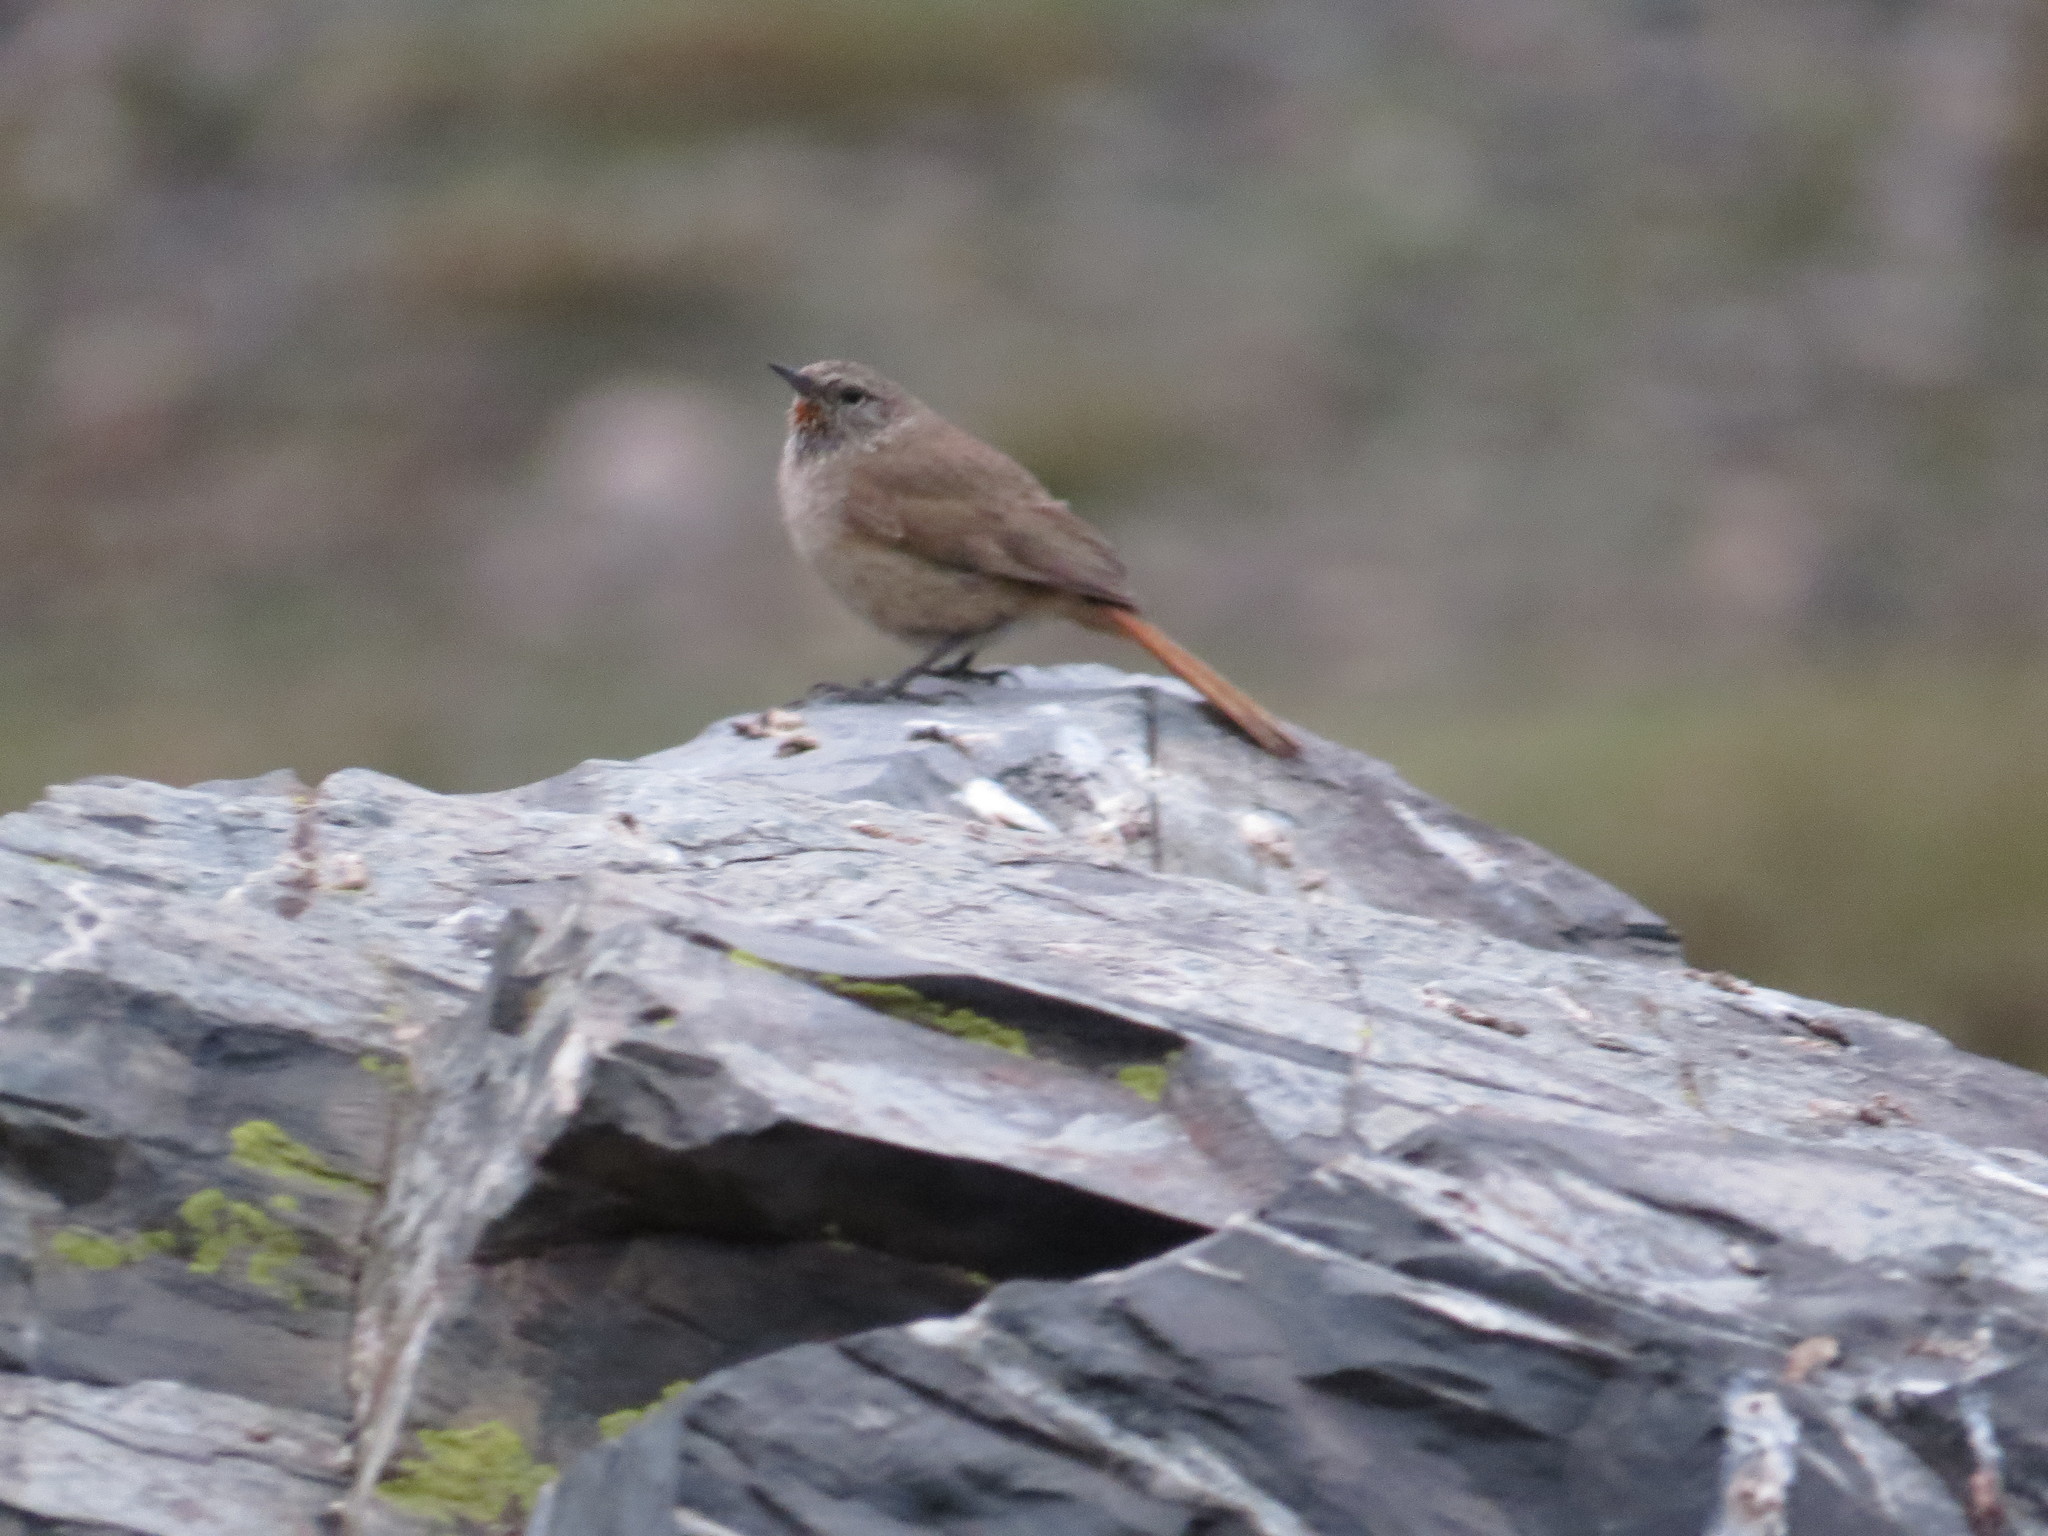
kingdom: Animalia
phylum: Chordata
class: Aves
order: Passeriformes
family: Furnariidae
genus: Asthenes
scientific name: Asthenes modesta
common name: Cordilleran canastero
